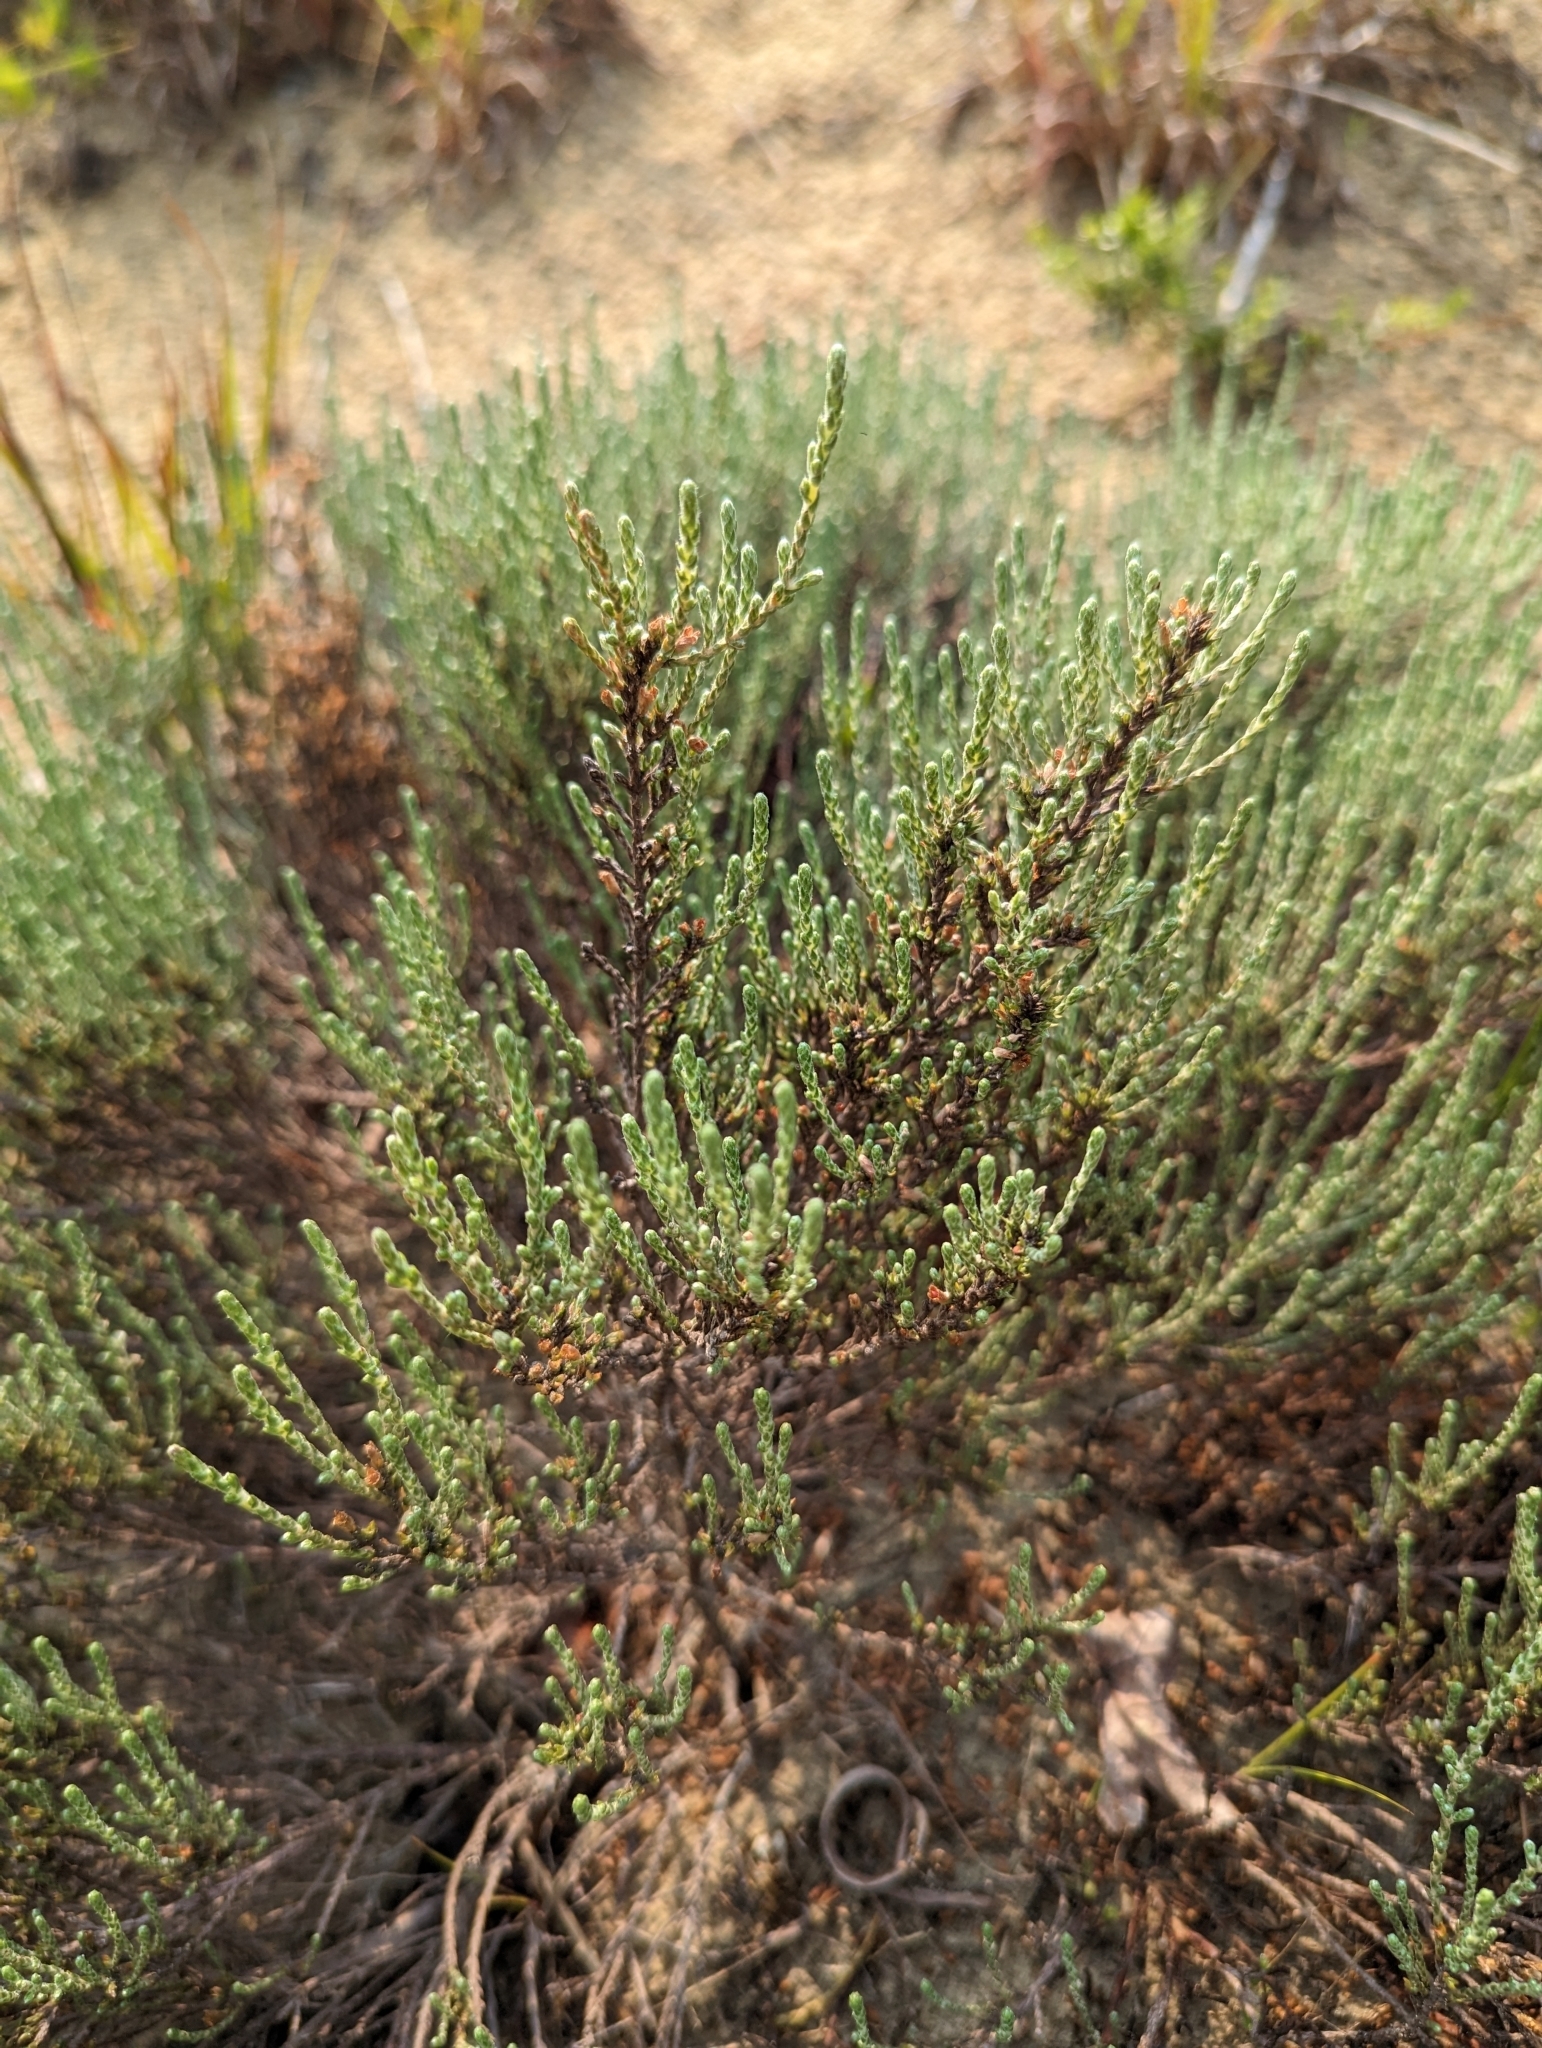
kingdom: Plantae
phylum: Tracheophyta
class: Magnoliopsida
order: Malvales
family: Cistaceae
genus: Hudsonia
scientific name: Hudsonia tomentosa
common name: Beach-heath
